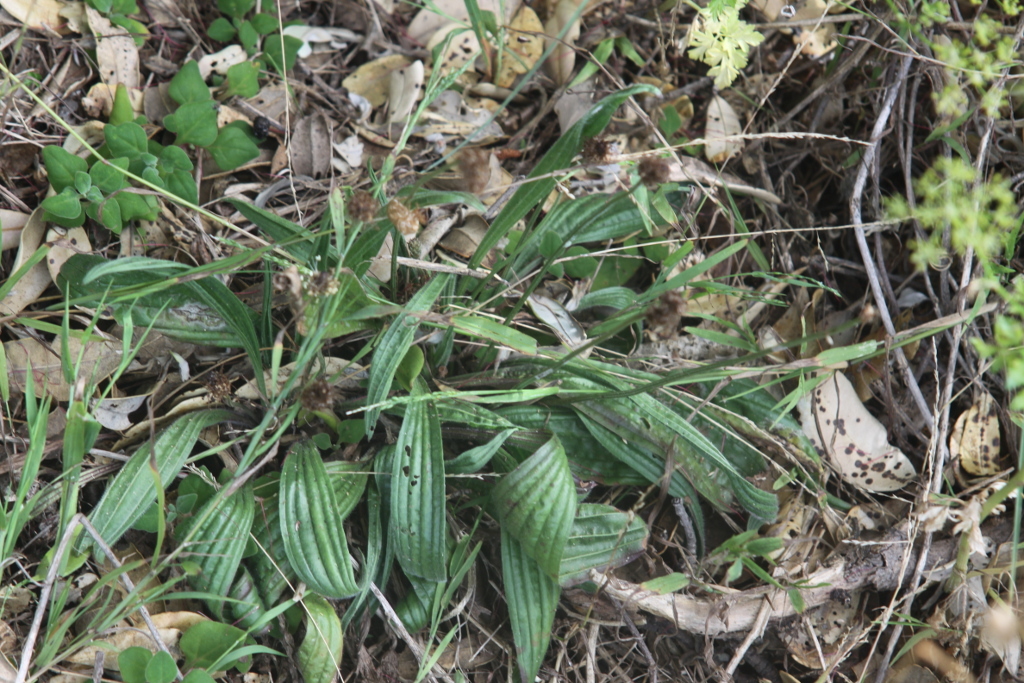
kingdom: Plantae
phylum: Tracheophyta
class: Magnoliopsida
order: Lamiales
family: Plantaginaceae
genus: Plantago
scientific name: Plantago lanceolata
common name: Ribwort plantain
